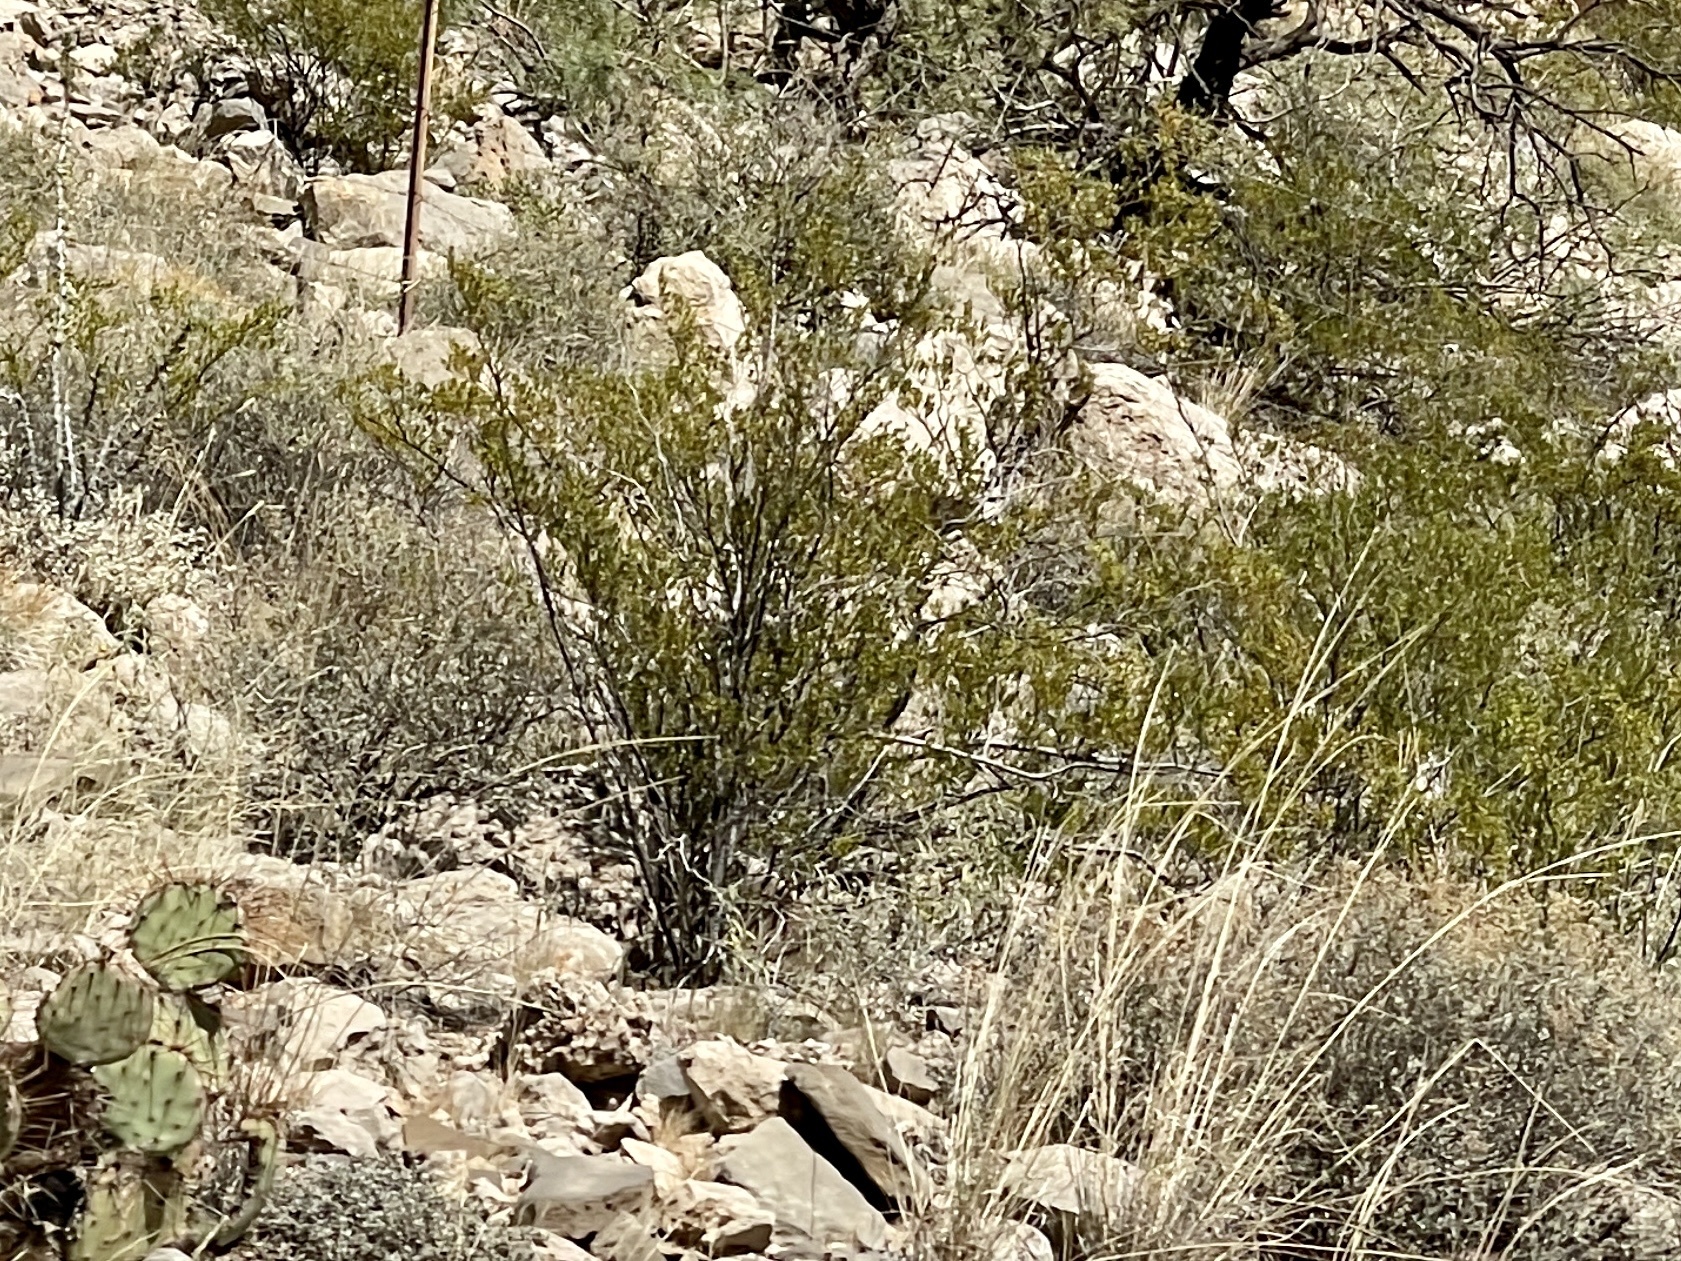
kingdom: Plantae
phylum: Tracheophyta
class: Magnoliopsida
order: Zygophyllales
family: Zygophyllaceae
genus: Larrea
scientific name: Larrea tridentata
